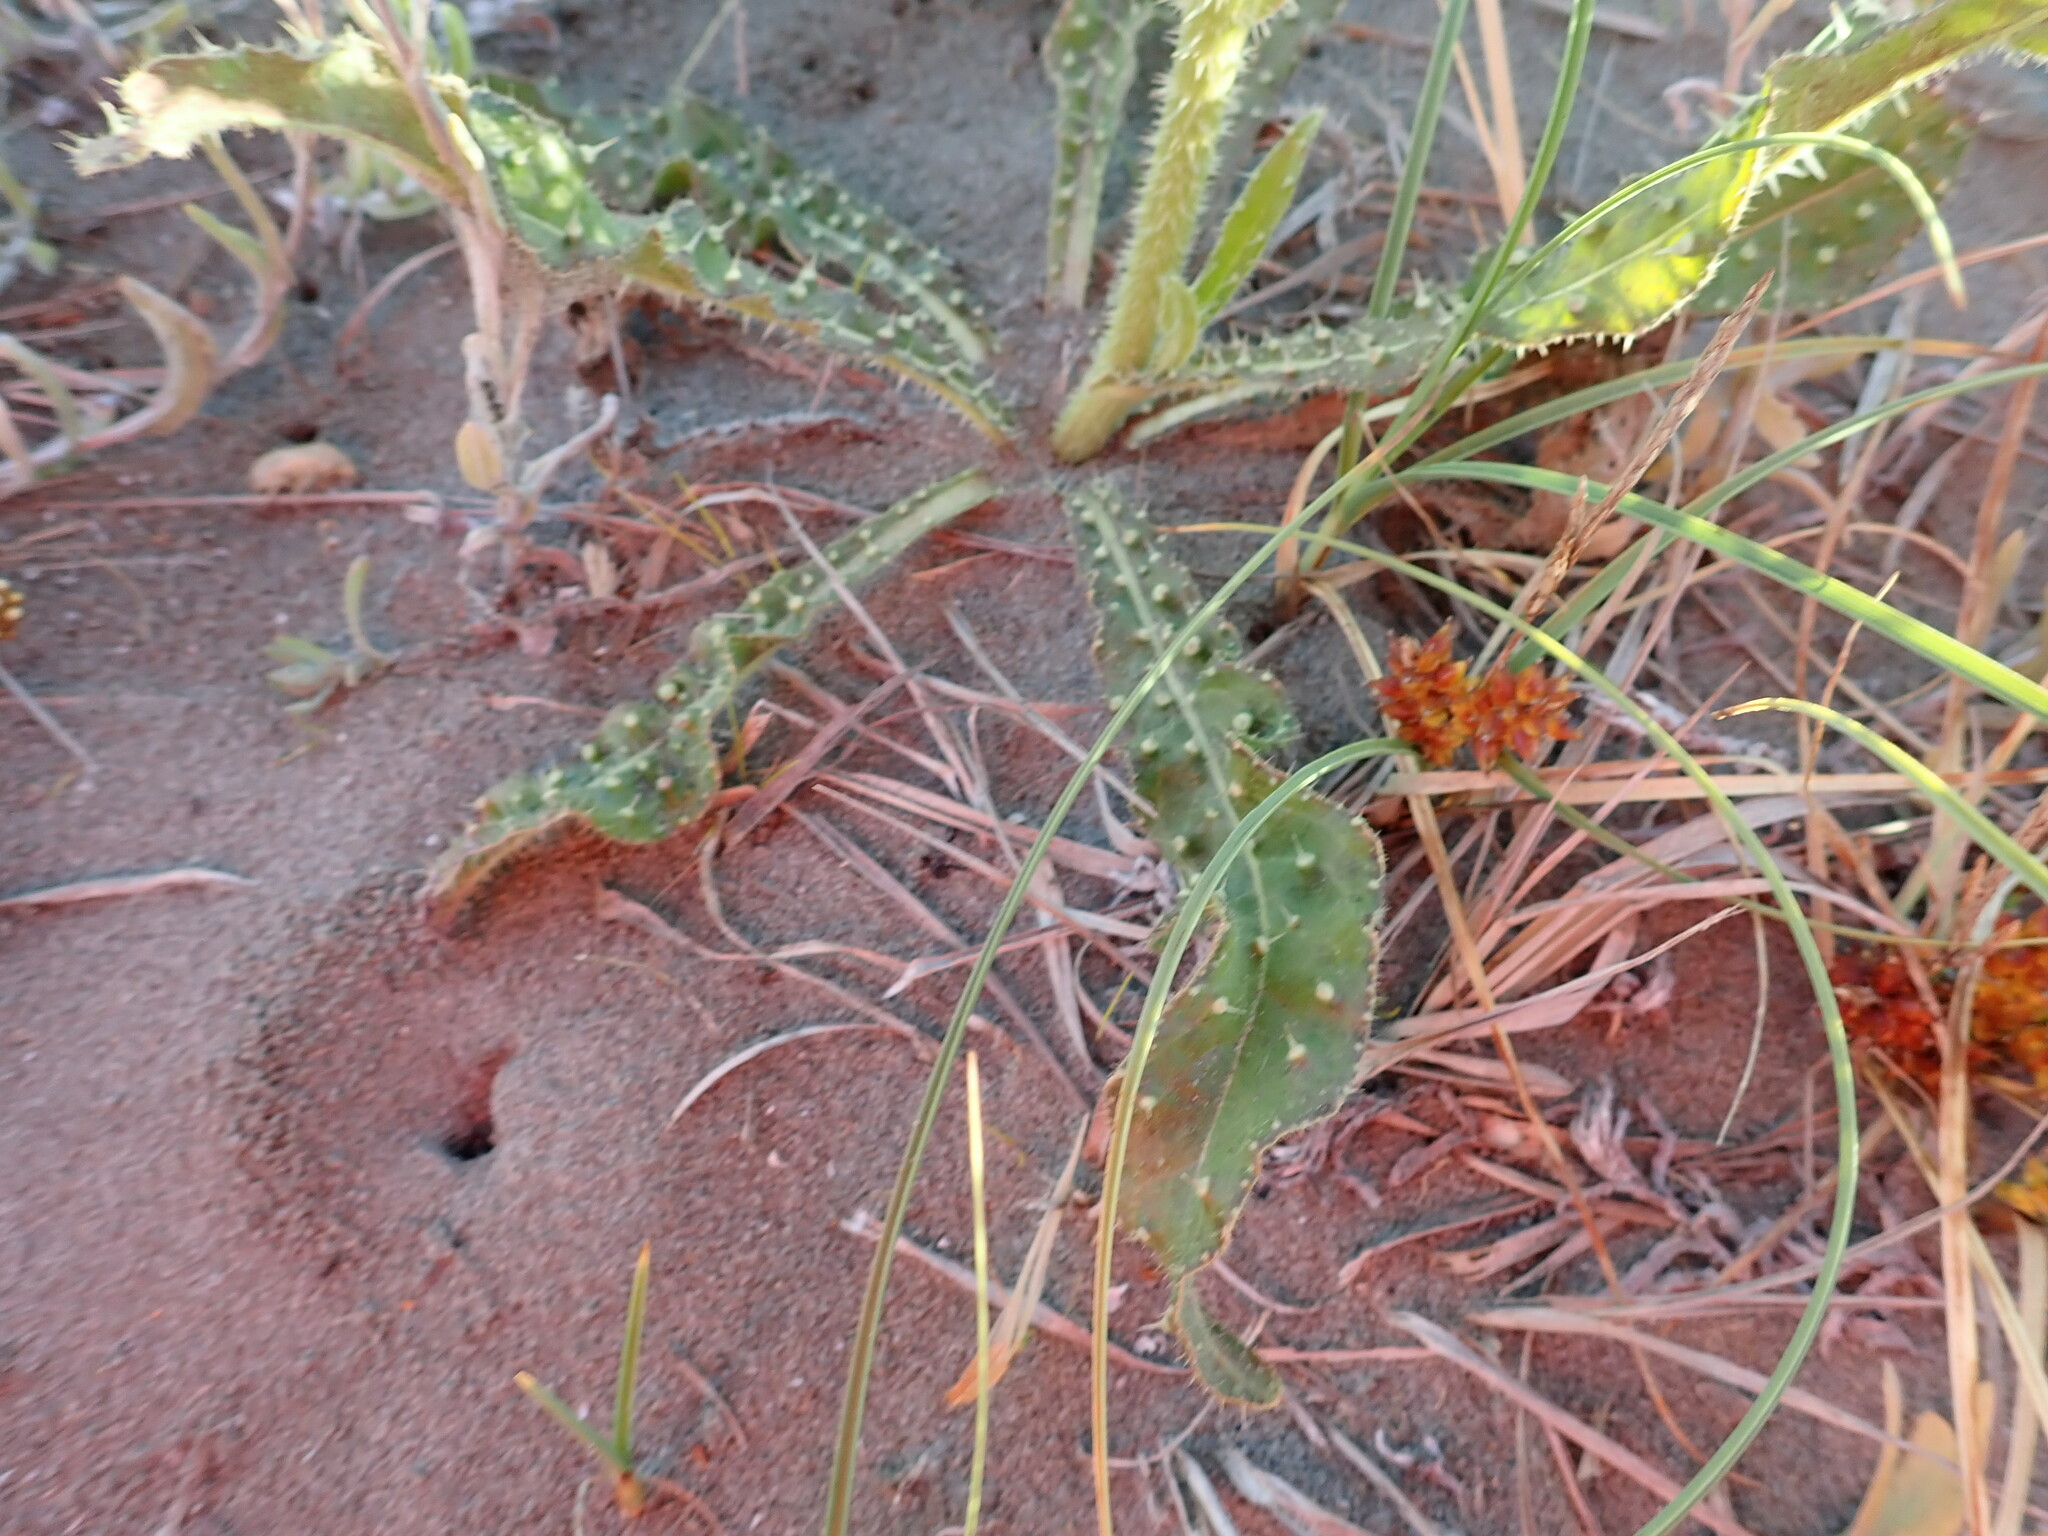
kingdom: Plantae
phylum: Tracheophyta
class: Magnoliopsida
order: Asterales
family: Asteraceae
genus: Sonchus
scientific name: Sonchus asper
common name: Prickly sow-thistle
